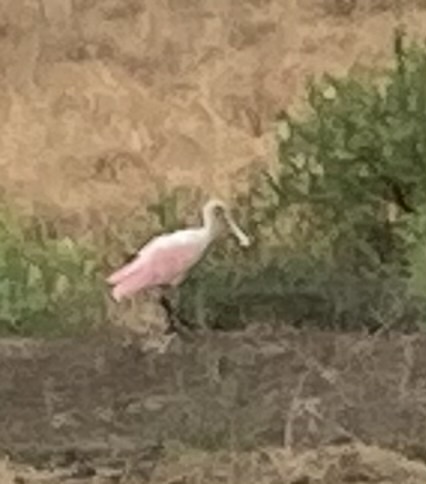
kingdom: Animalia
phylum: Chordata
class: Aves
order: Pelecaniformes
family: Threskiornithidae
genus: Platalea
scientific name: Platalea ajaja
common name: Roseate spoonbill
